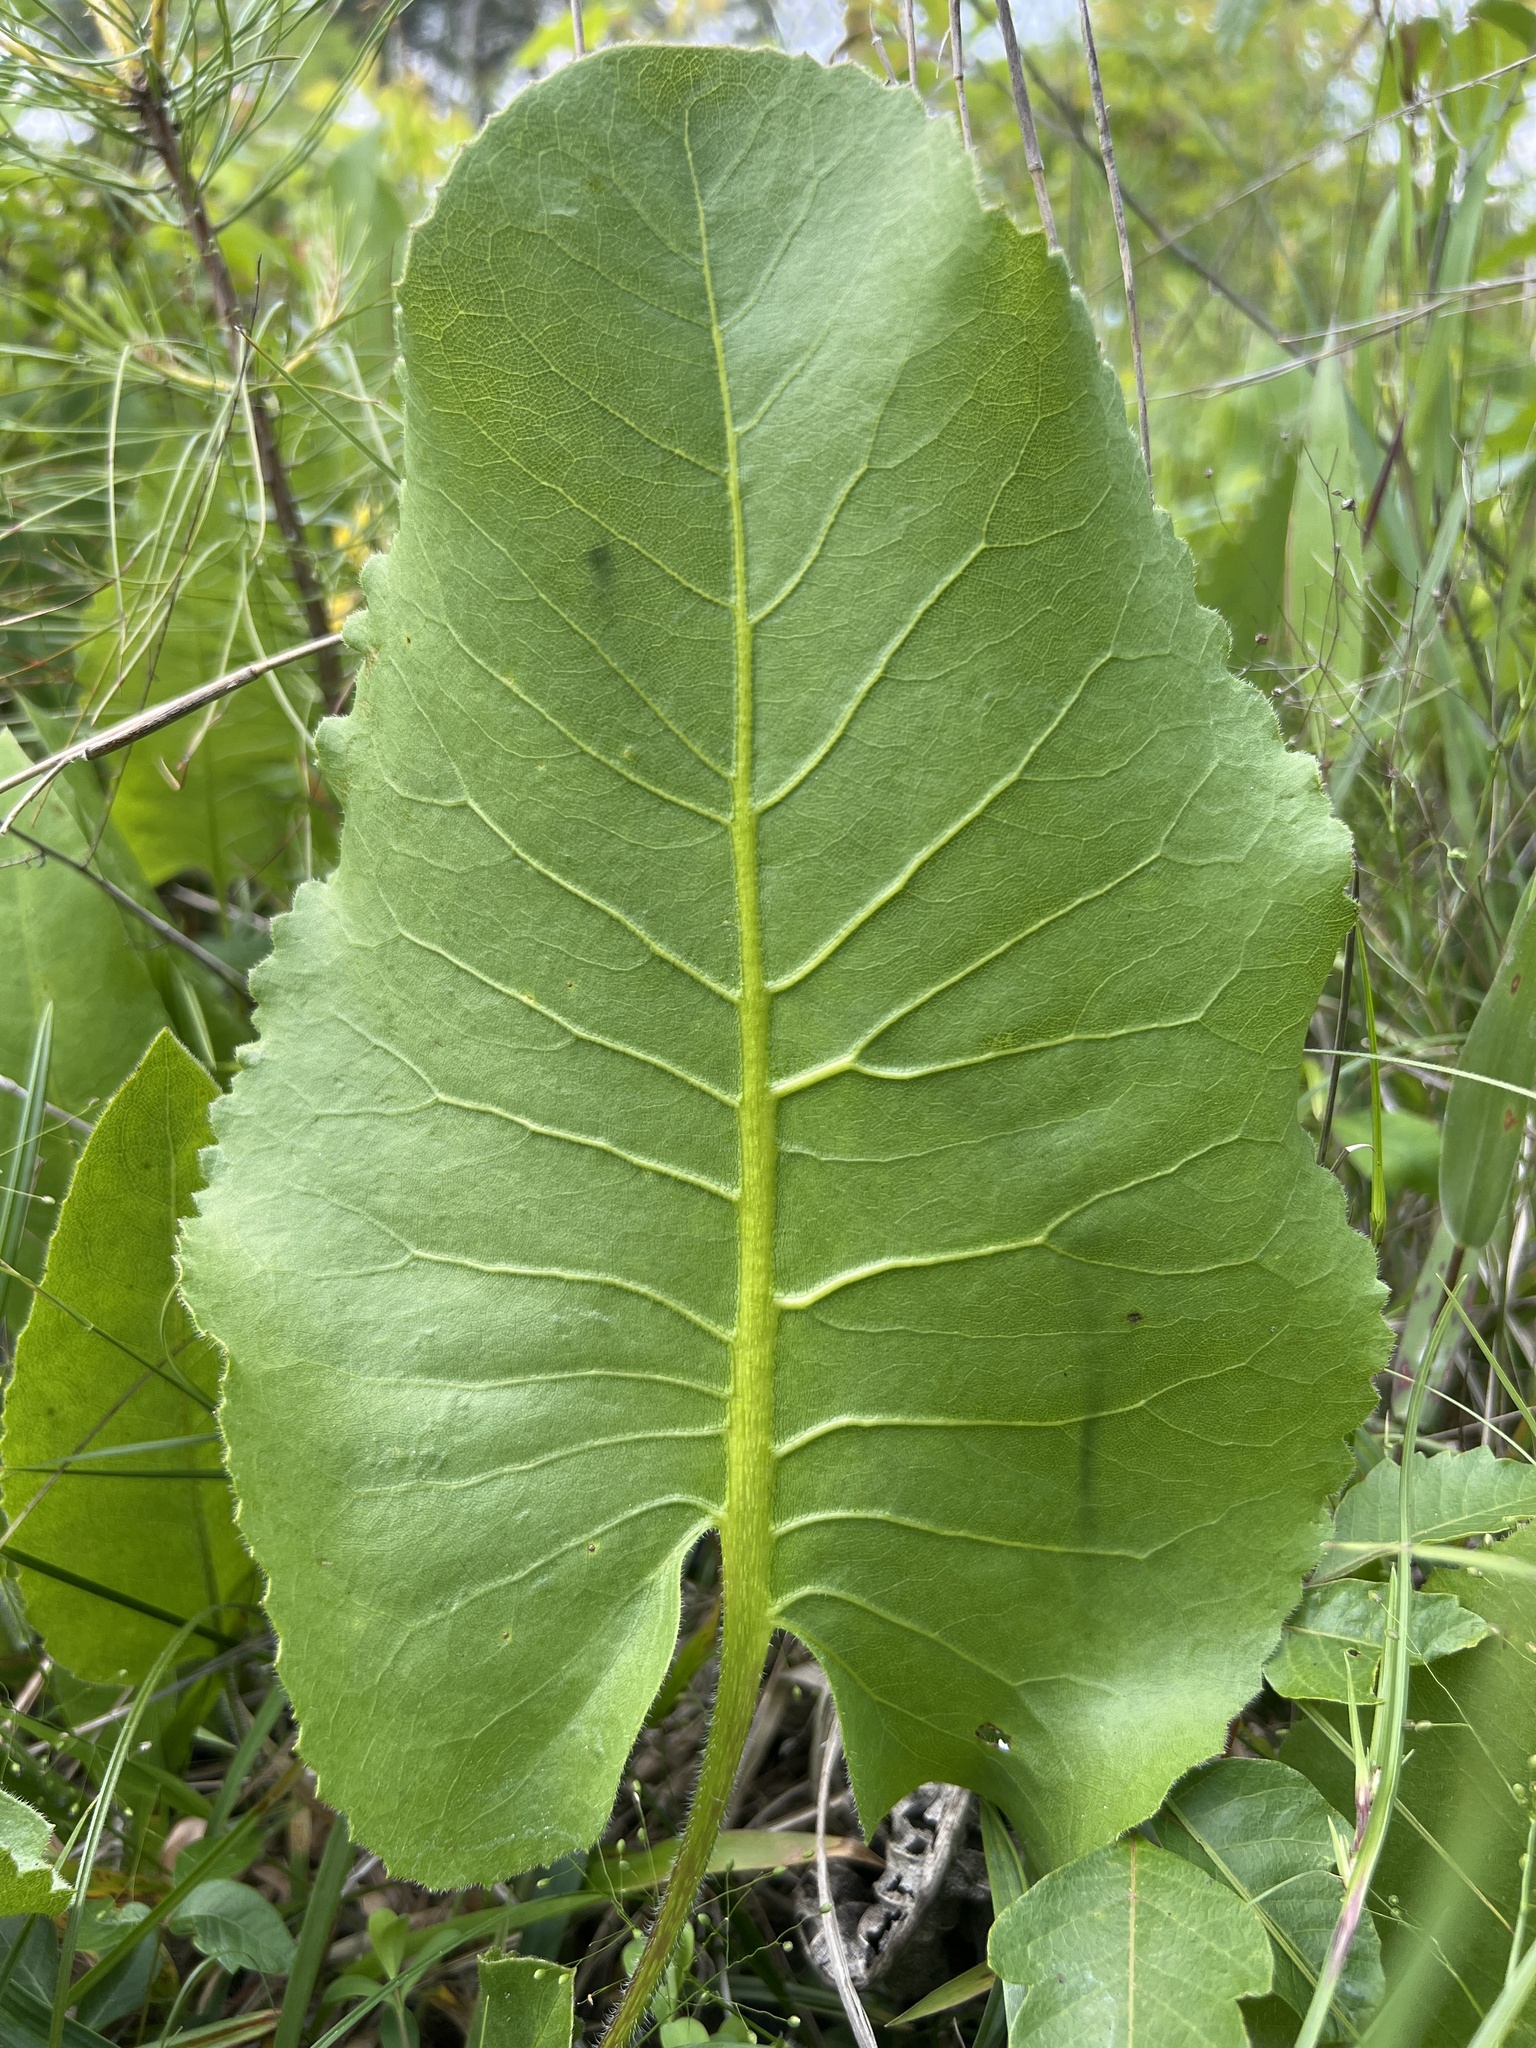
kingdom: Plantae
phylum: Tracheophyta
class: Magnoliopsida
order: Asterales
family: Asteraceae
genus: Silphium
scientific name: Silphium terebinthinaceum
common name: Basal-leaf rosinweed
